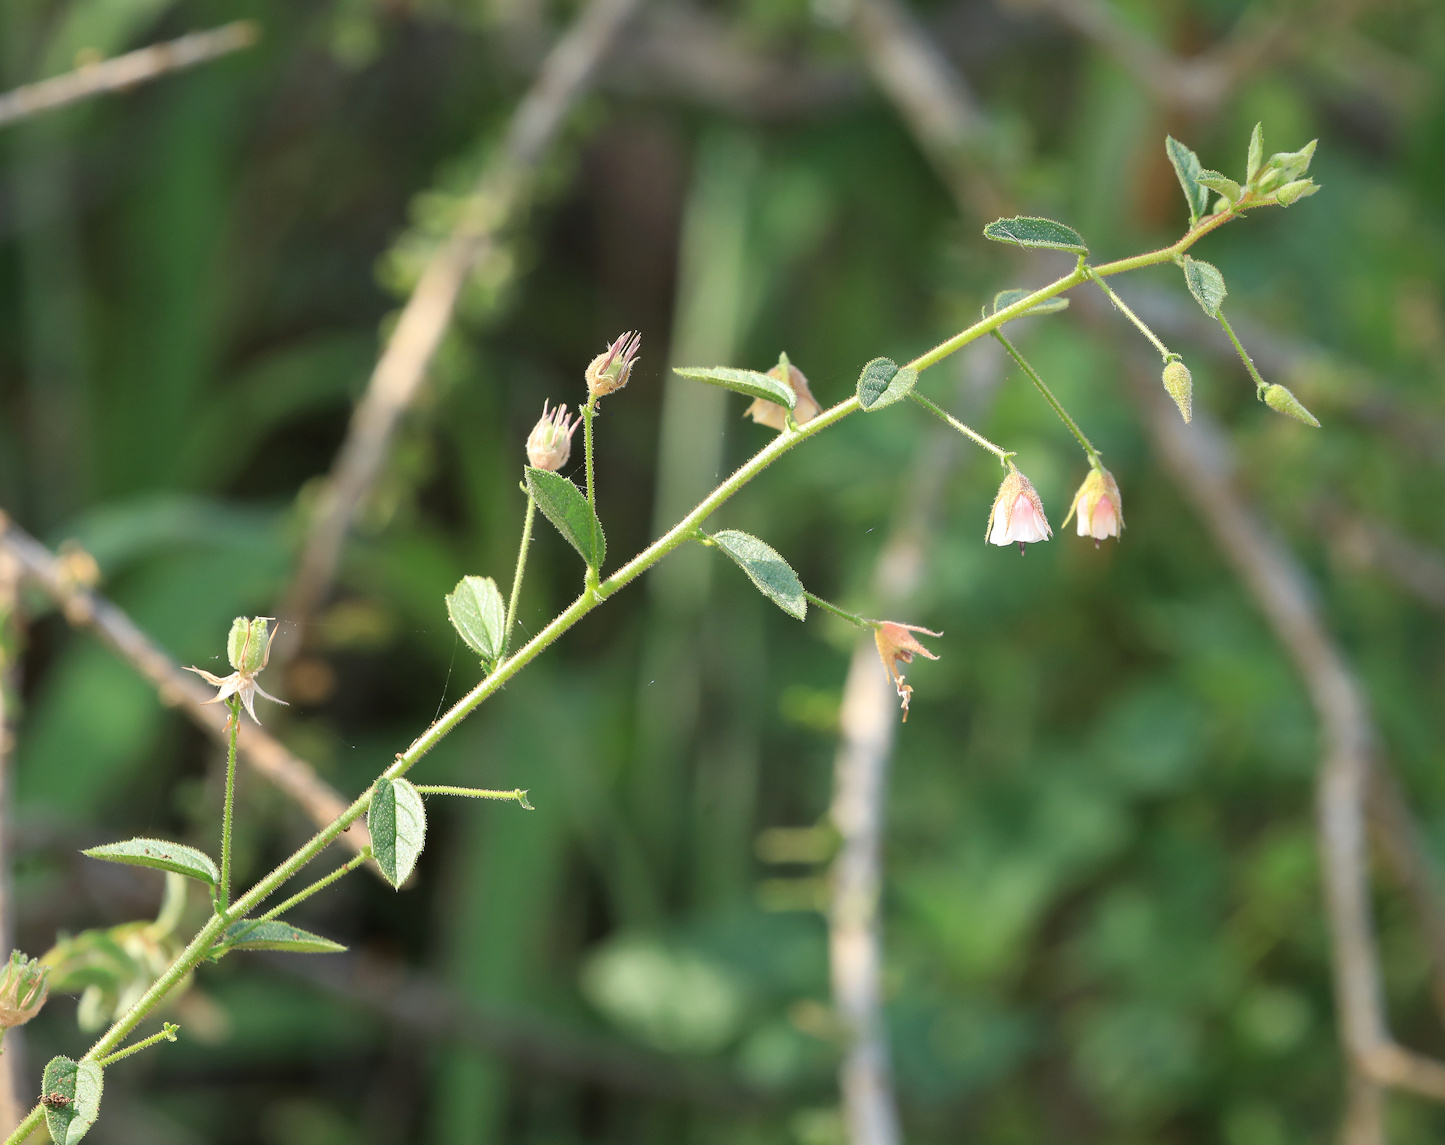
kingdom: Plantae
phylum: Tracheophyta
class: Magnoliopsida
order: Malvales
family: Malvaceae
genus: Hermannia
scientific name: Hermannia boraginiflora
